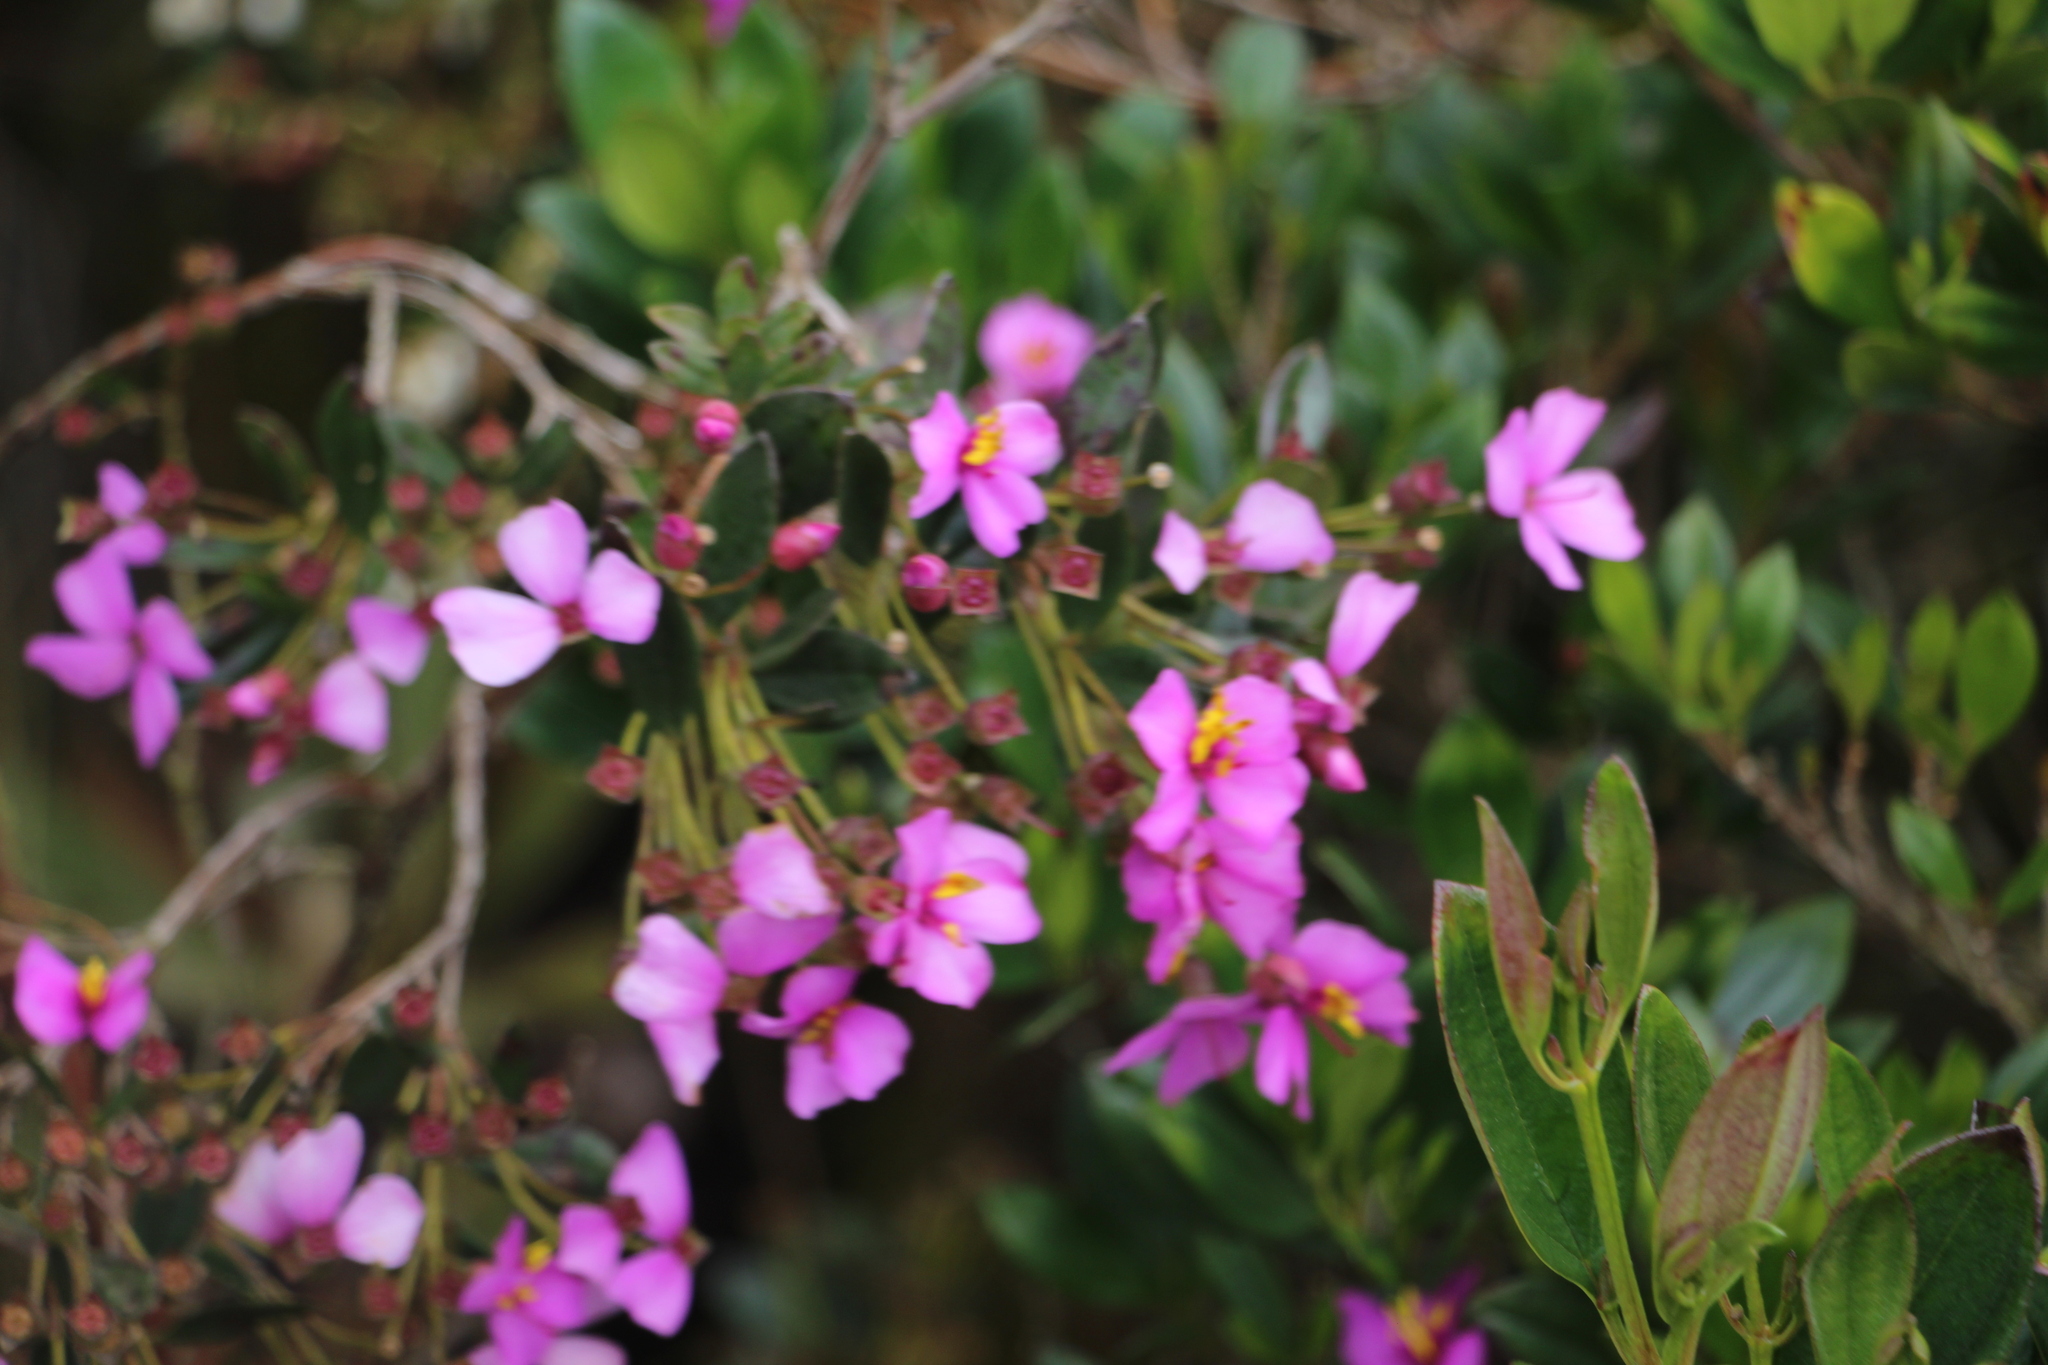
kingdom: Plantae
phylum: Tracheophyta
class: Magnoliopsida
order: Myrtales
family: Melastomataceae
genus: Bucquetia
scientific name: Bucquetia glutinosa
